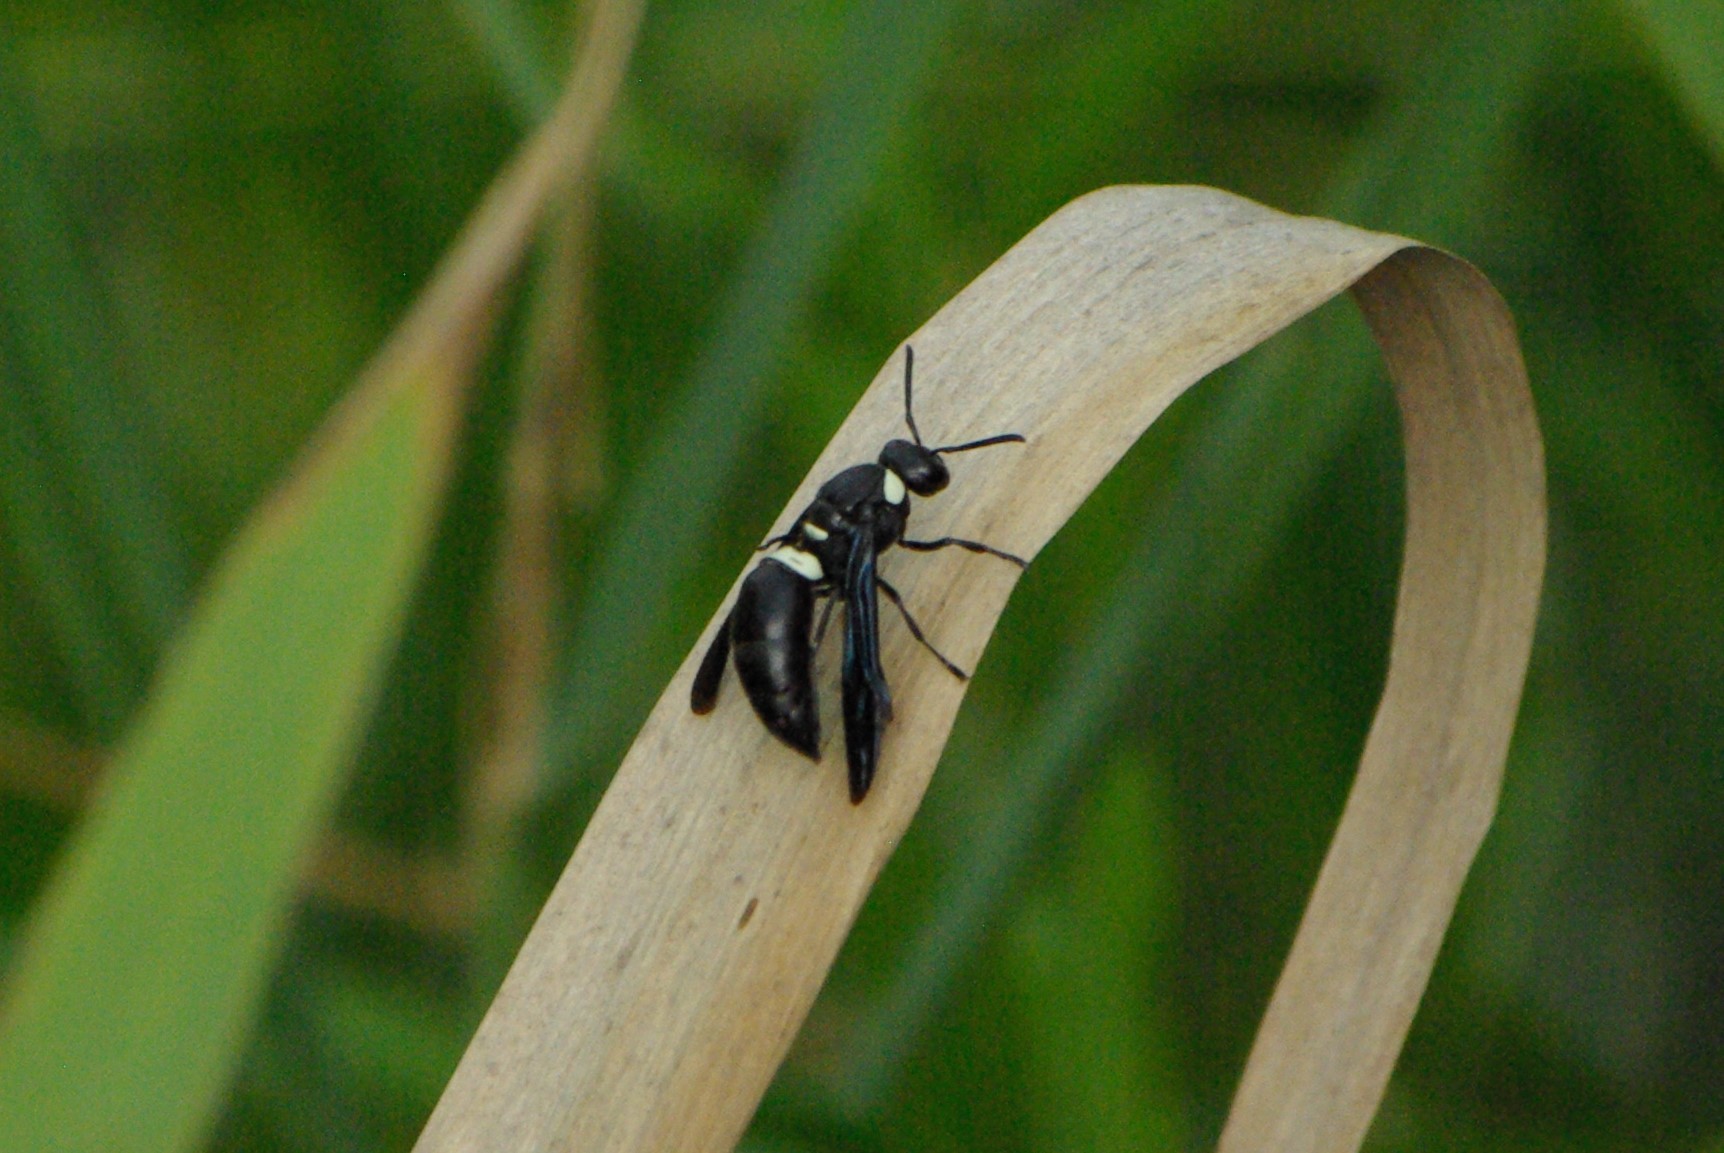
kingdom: Animalia
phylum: Arthropoda
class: Insecta
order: Hymenoptera
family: Eumenidae
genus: Monobia
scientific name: Monobia quadridens
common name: Four-toothed mason wasp
